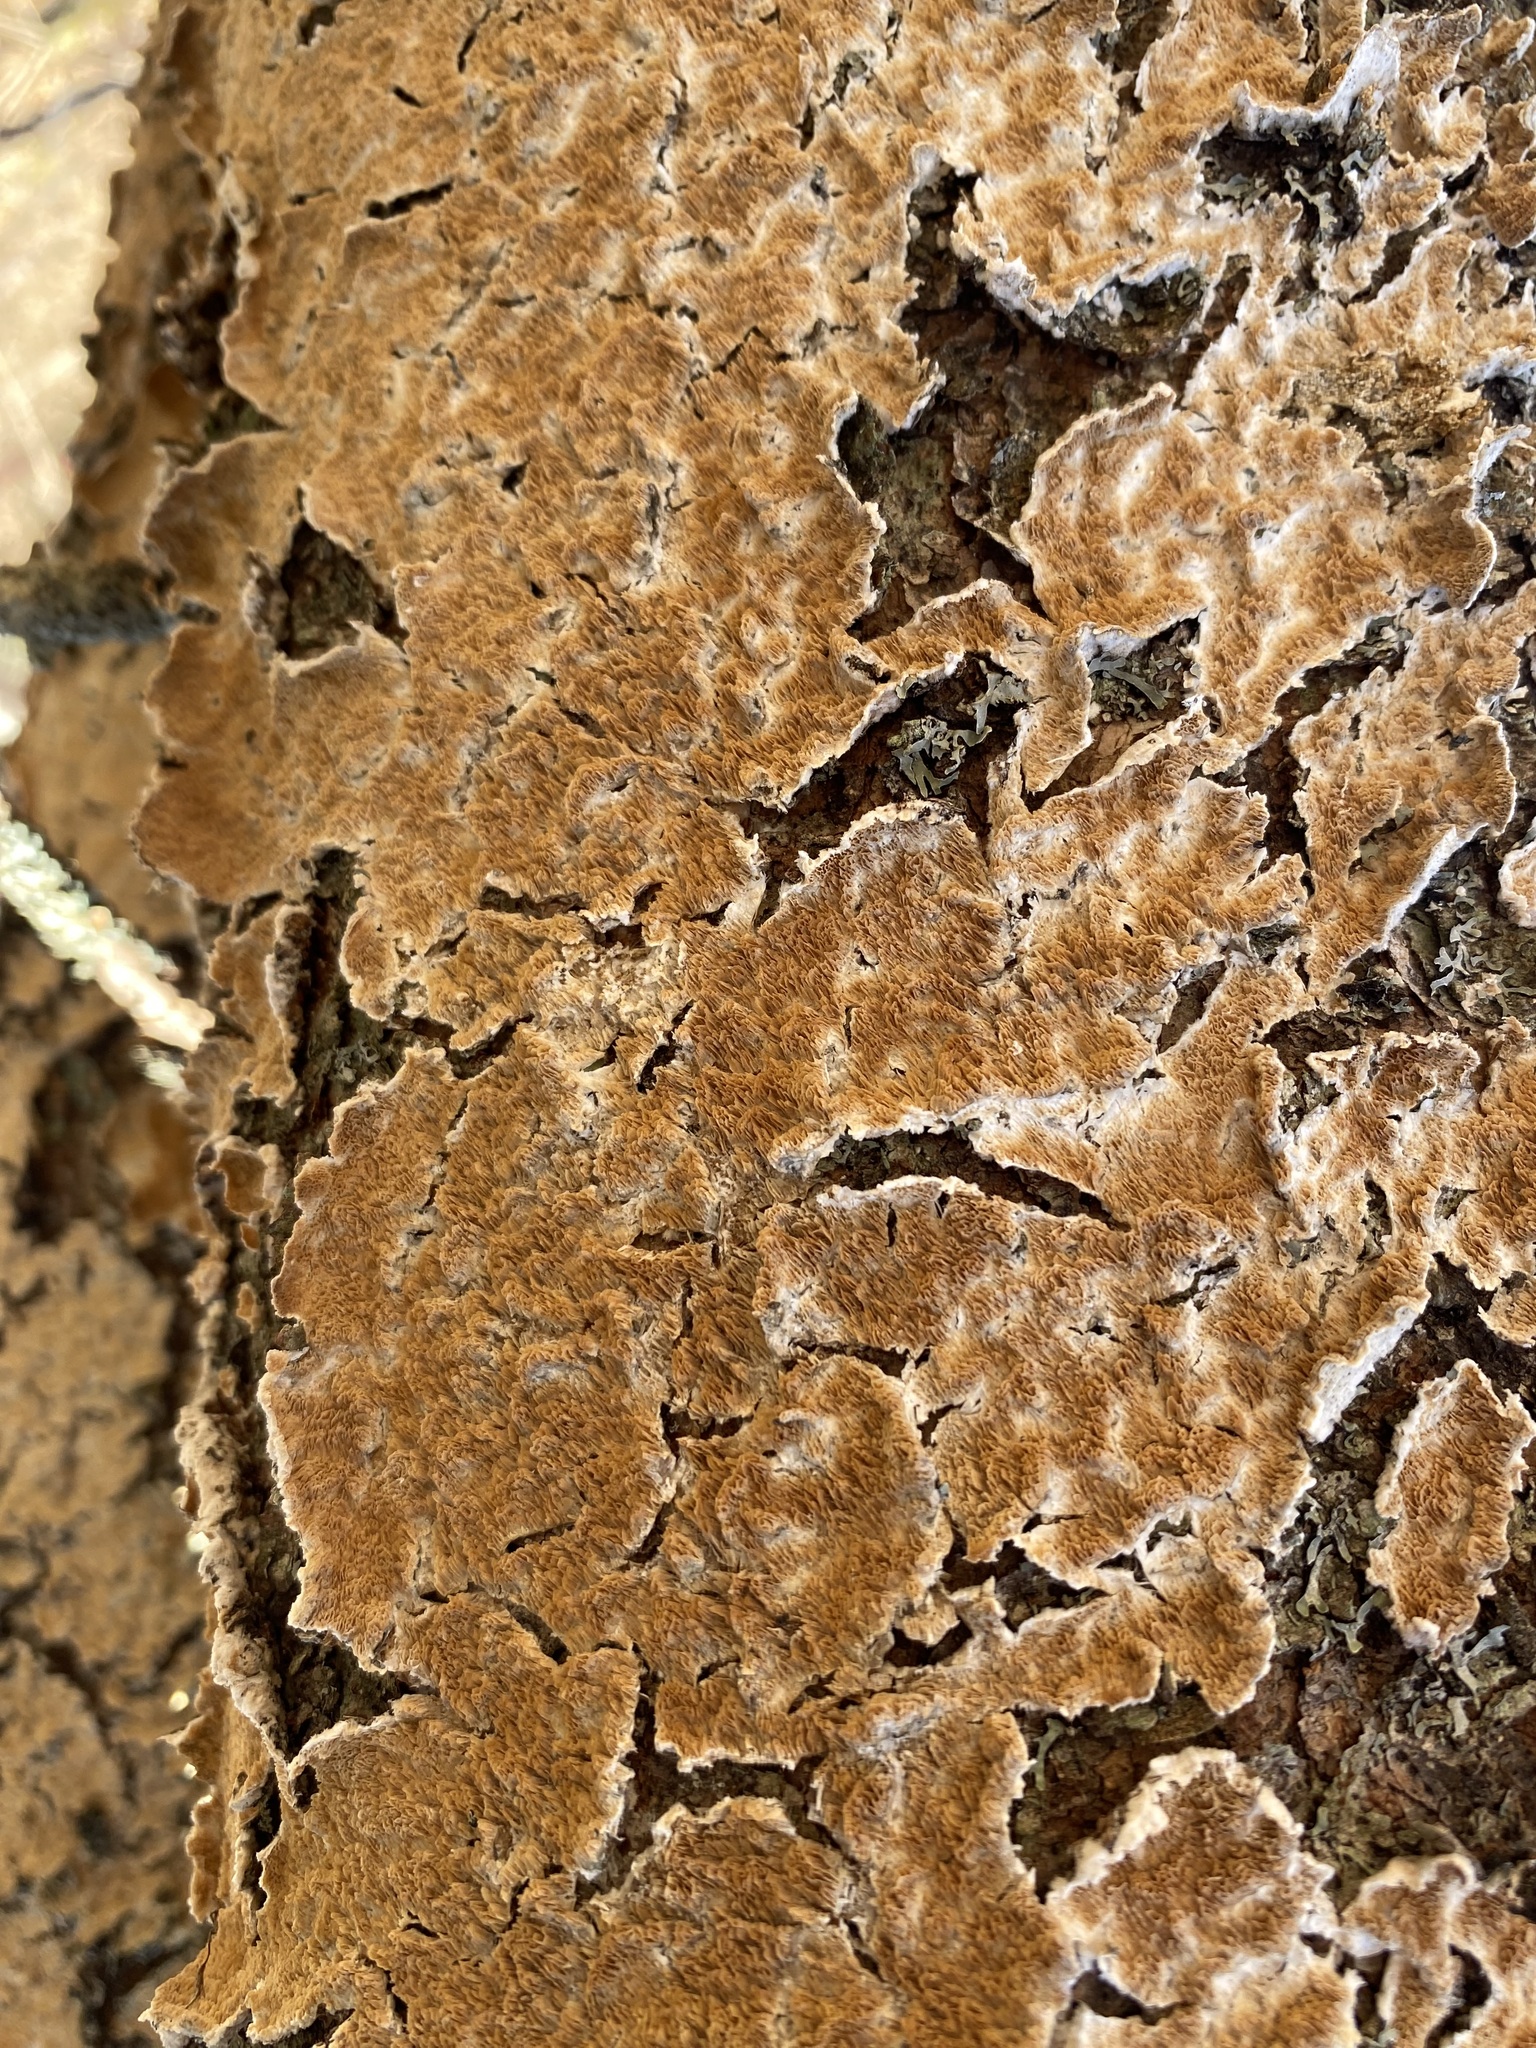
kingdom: Fungi
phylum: Basidiomycota
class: Agaricomycetes
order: Hymenochaetales
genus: Trichaptum
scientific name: Trichaptum abietinum
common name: Purplepore bracket
